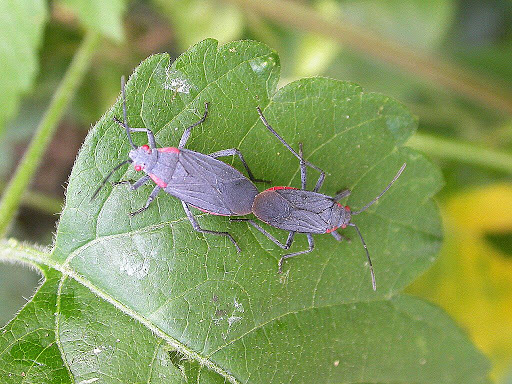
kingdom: Animalia
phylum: Arthropoda
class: Insecta
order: Hemiptera
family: Rhopalidae
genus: Jadera
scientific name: Jadera haematoloma
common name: Red-shouldered bug
